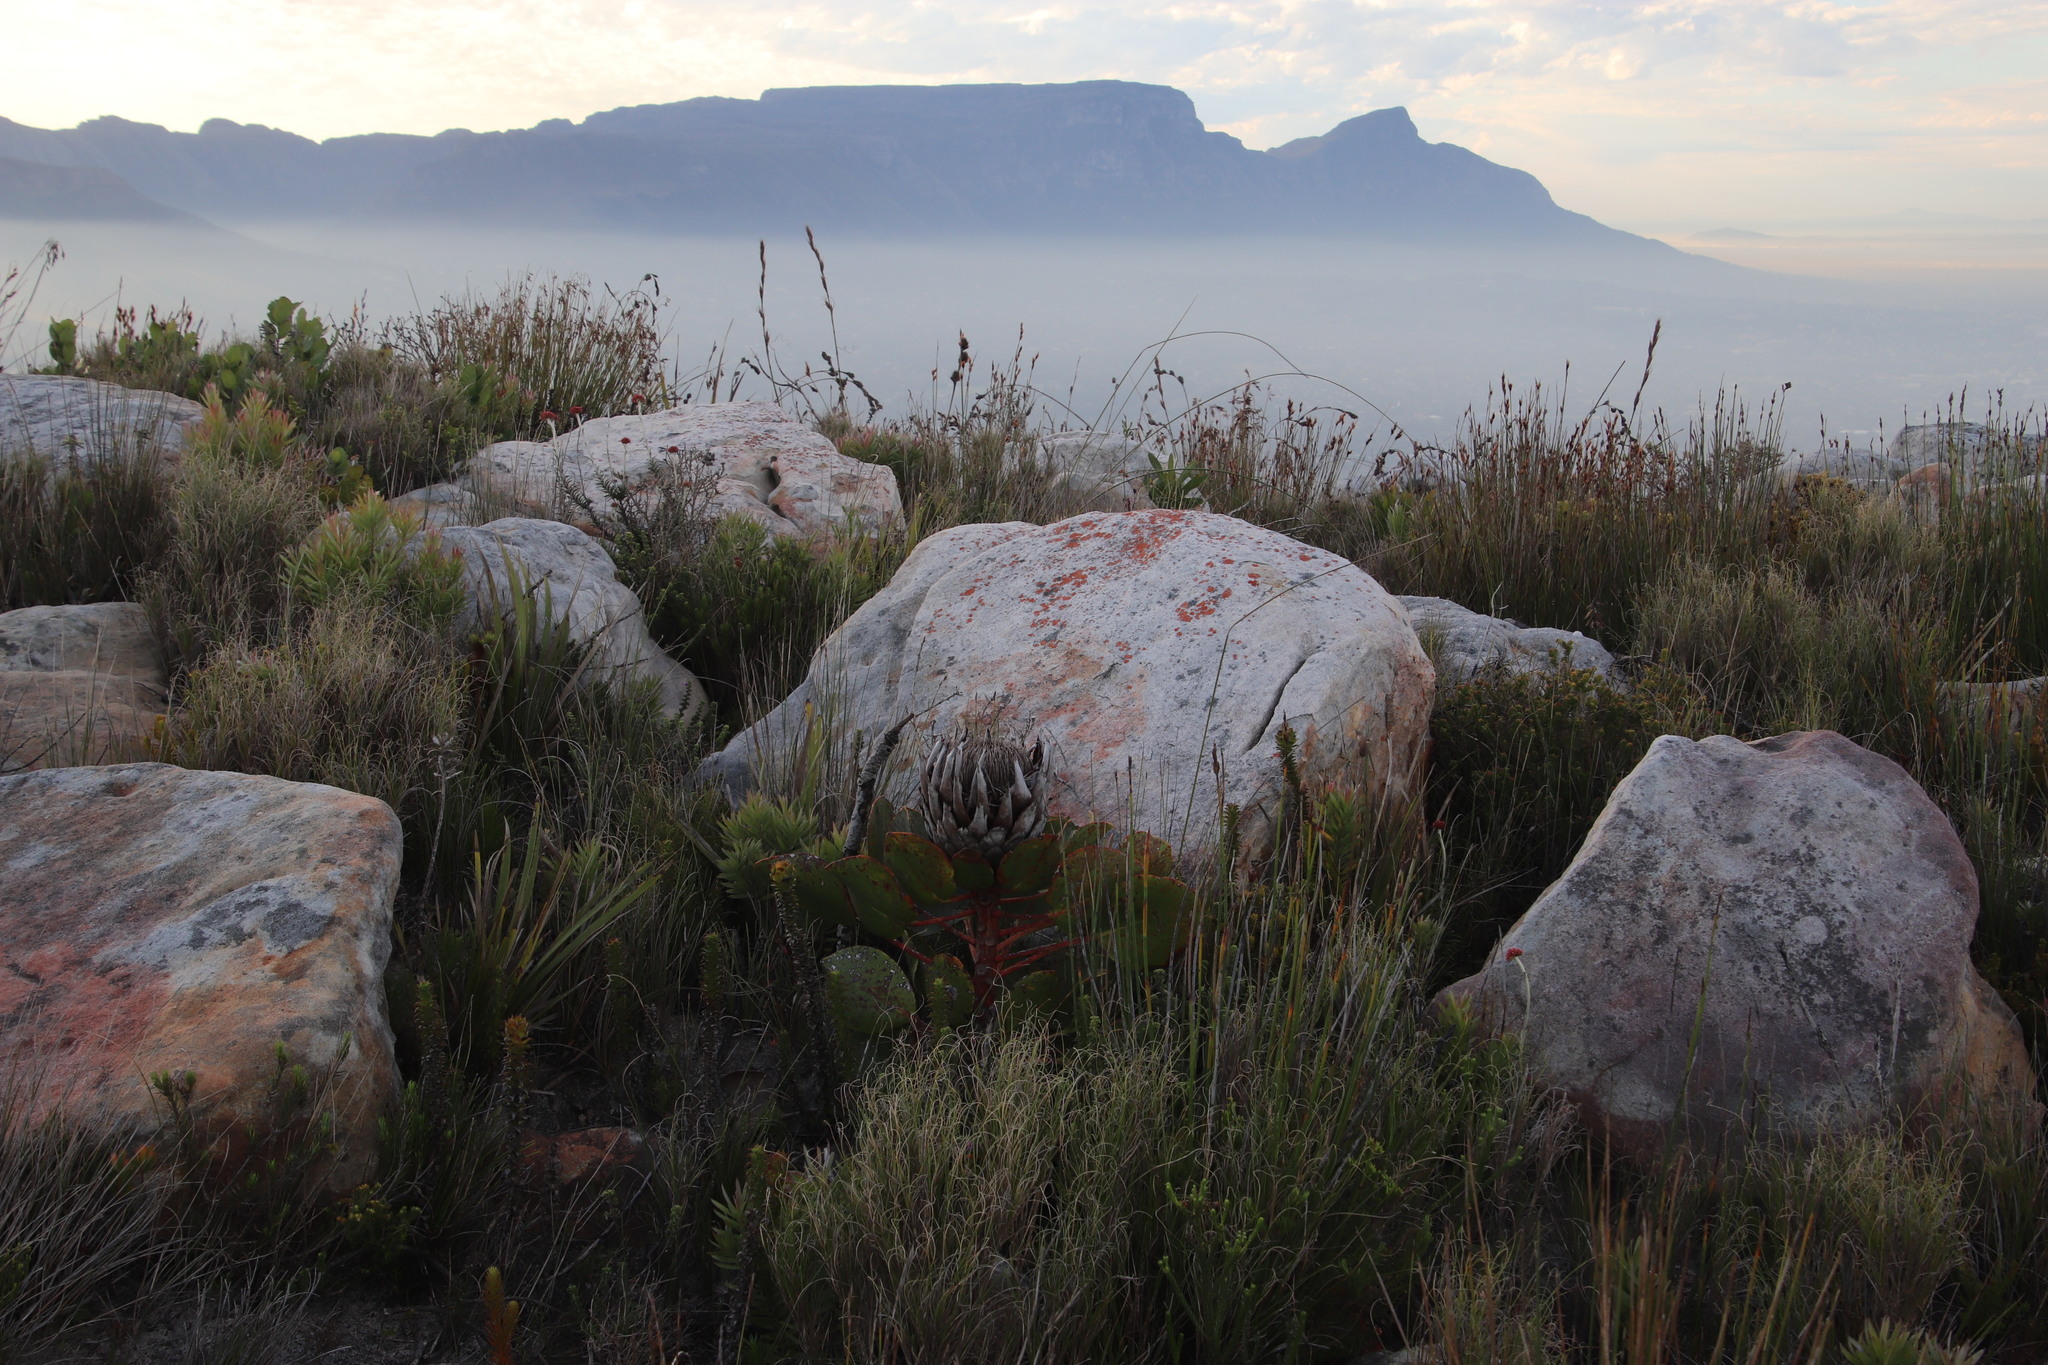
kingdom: Plantae
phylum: Tracheophyta
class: Magnoliopsida
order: Proteales
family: Proteaceae
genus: Protea
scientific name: Protea cynaroides
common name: King protea
